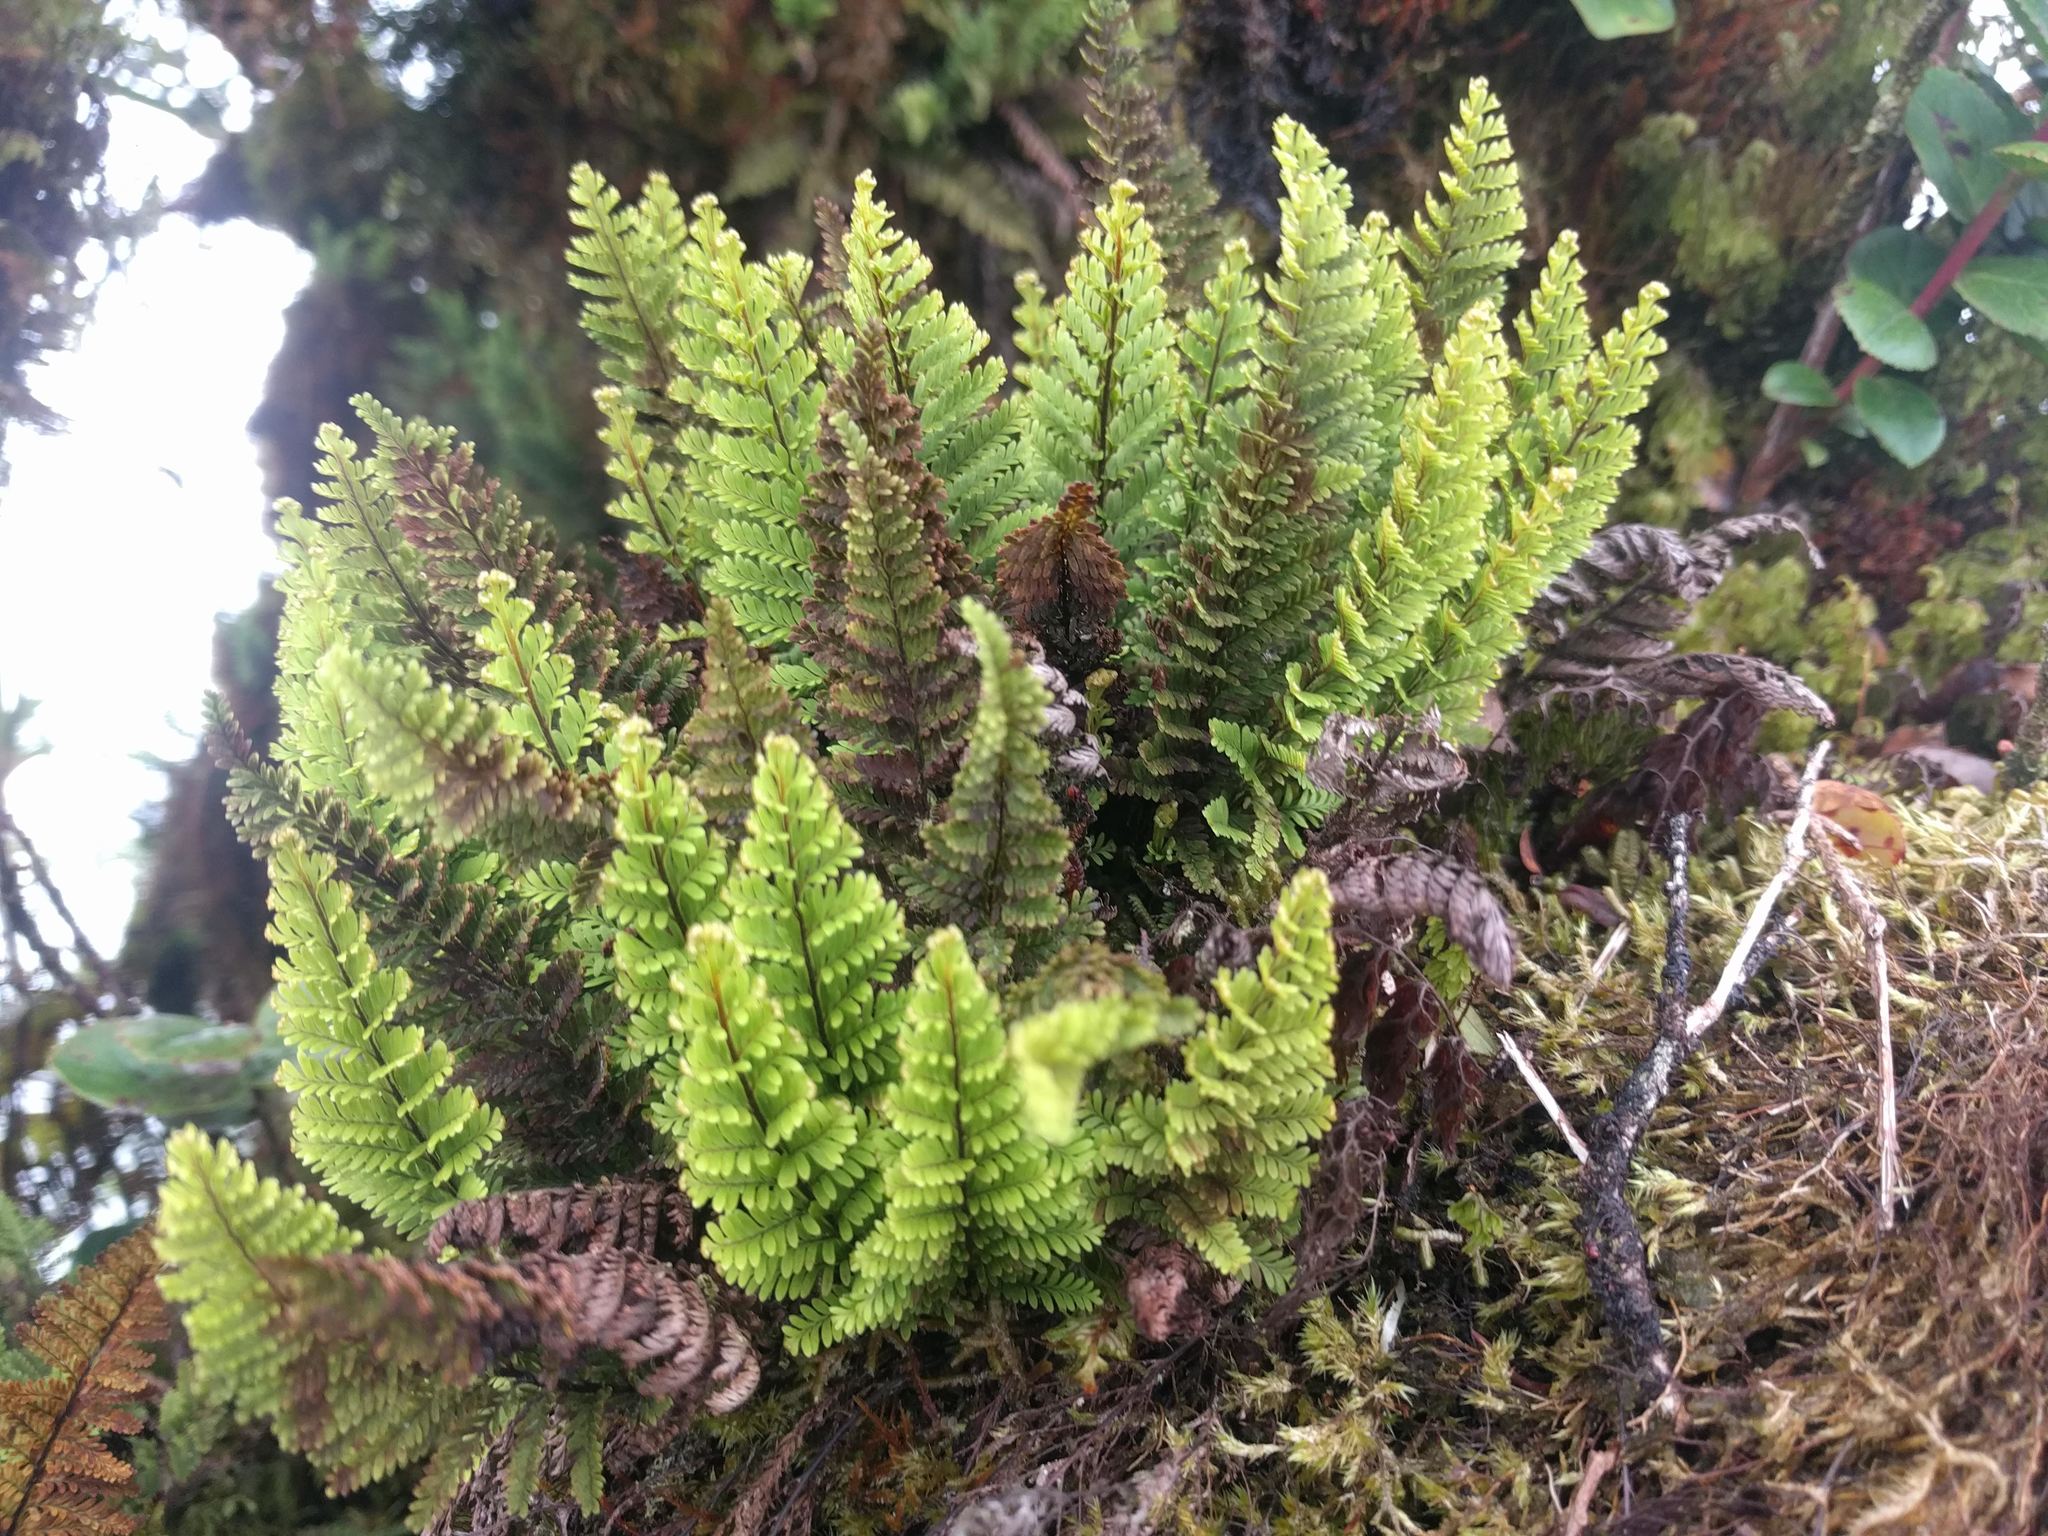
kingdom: Plantae
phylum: Tracheophyta
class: Polypodiopsida
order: Polypodiales
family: Polypodiaceae
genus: Adenophorus
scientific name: Adenophorus tamariscinus
